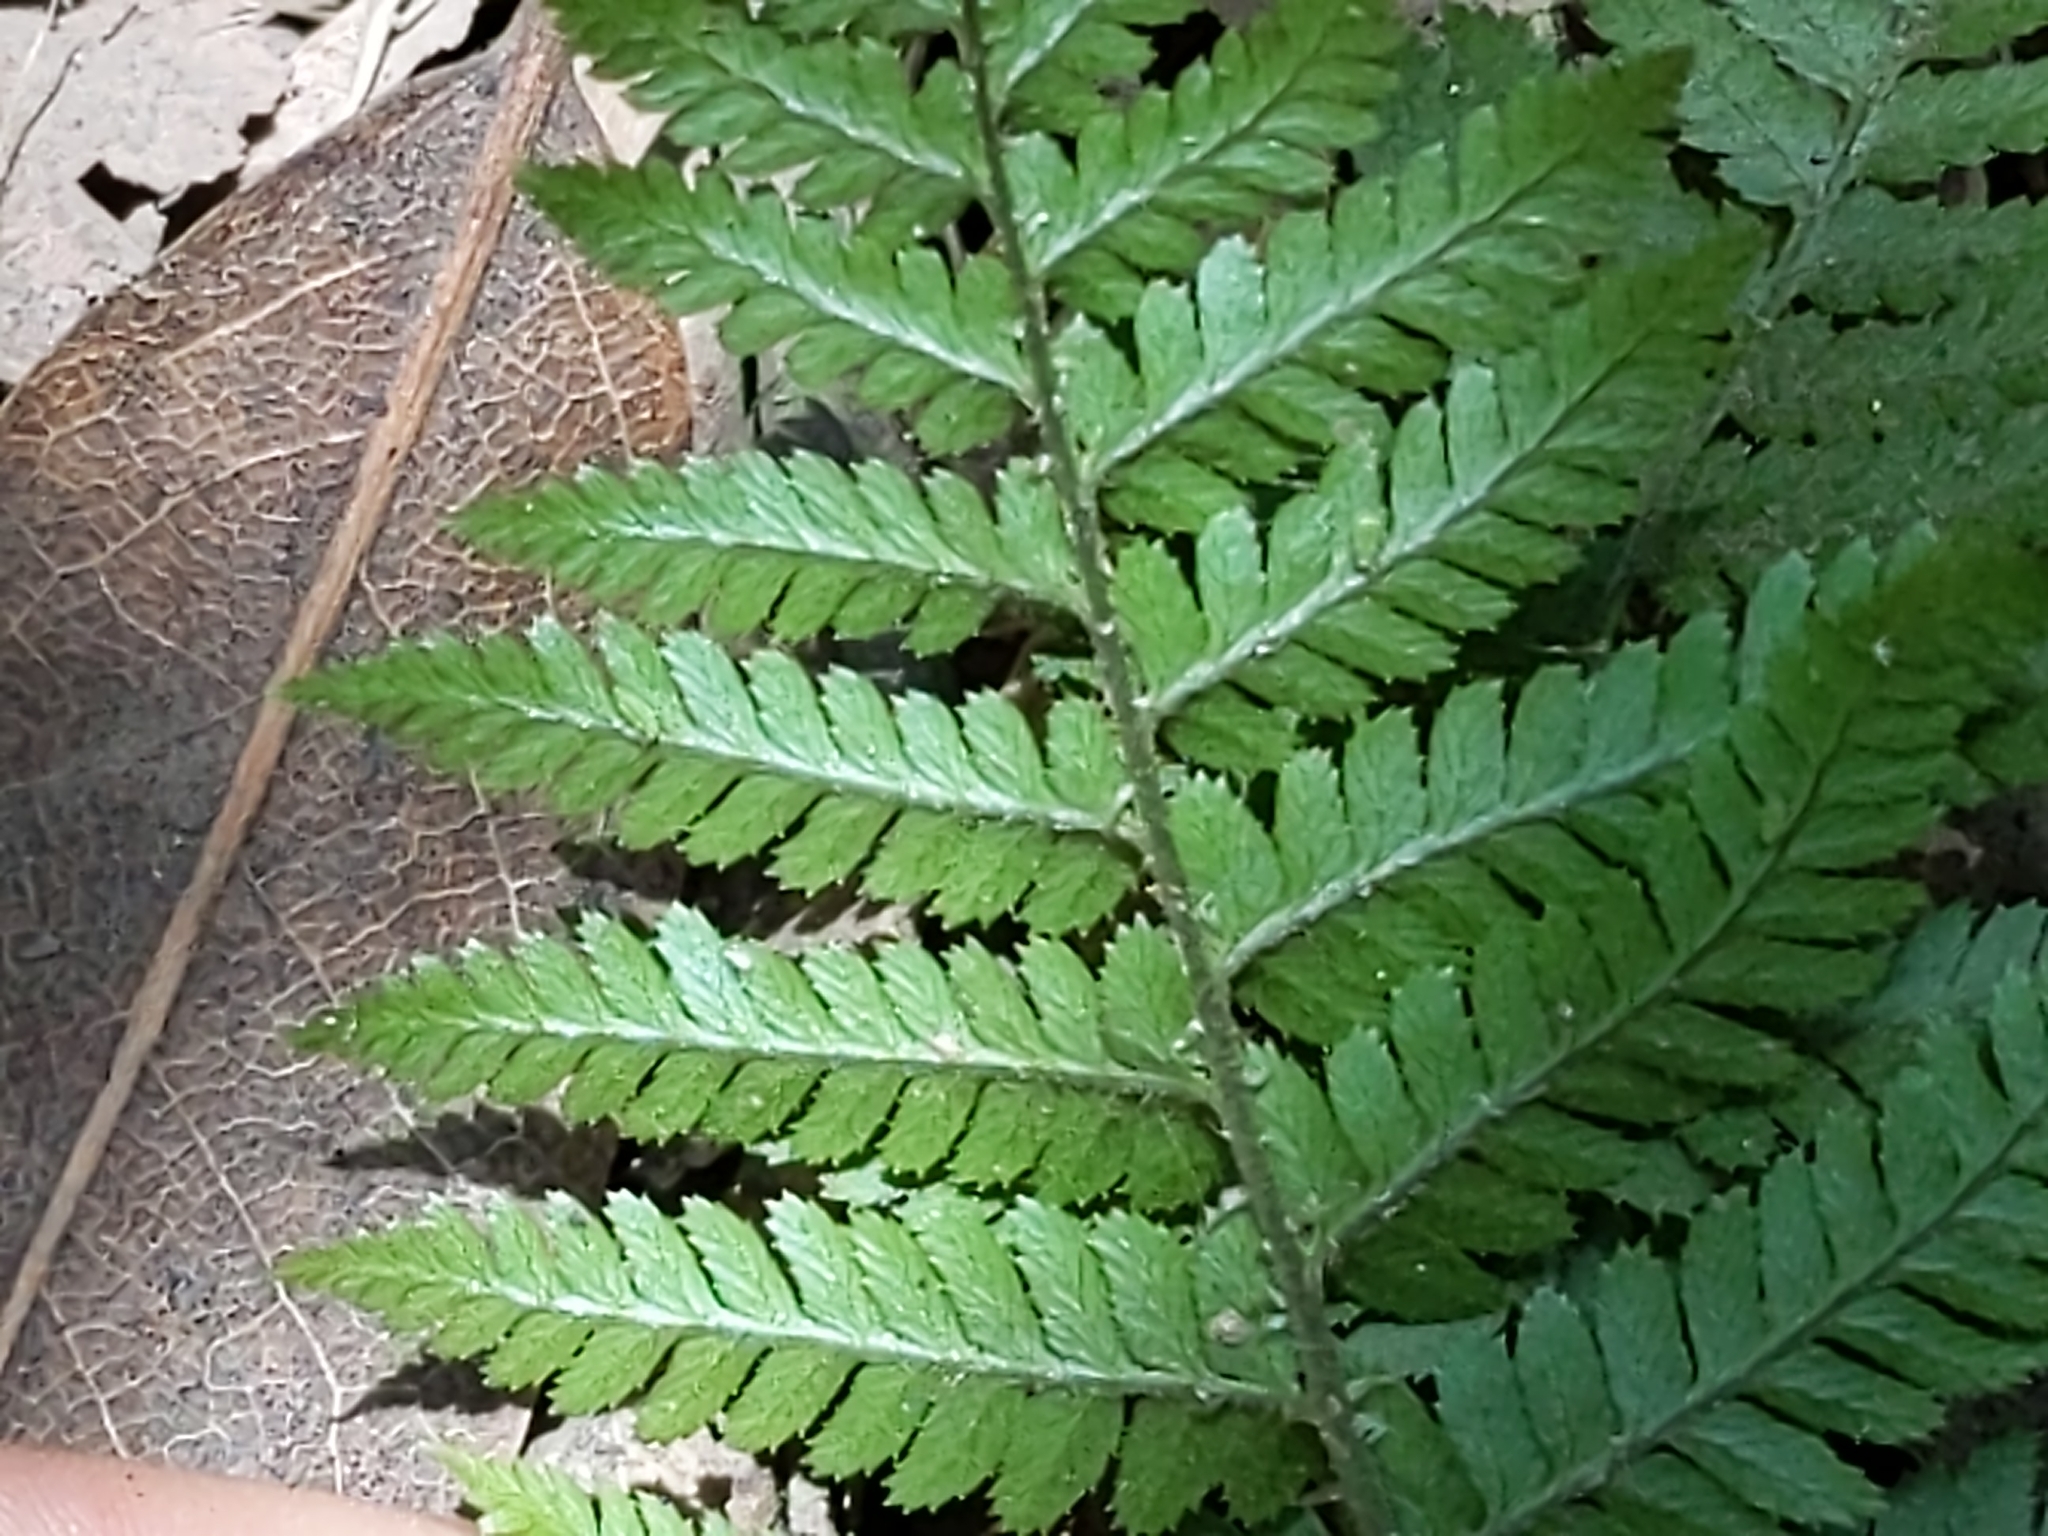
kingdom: Plantae
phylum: Tracheophyta
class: Polypodiopsida
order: Polypodiales
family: Dryopteridaceae
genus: Dryopteris
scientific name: Dryopteris arguta
